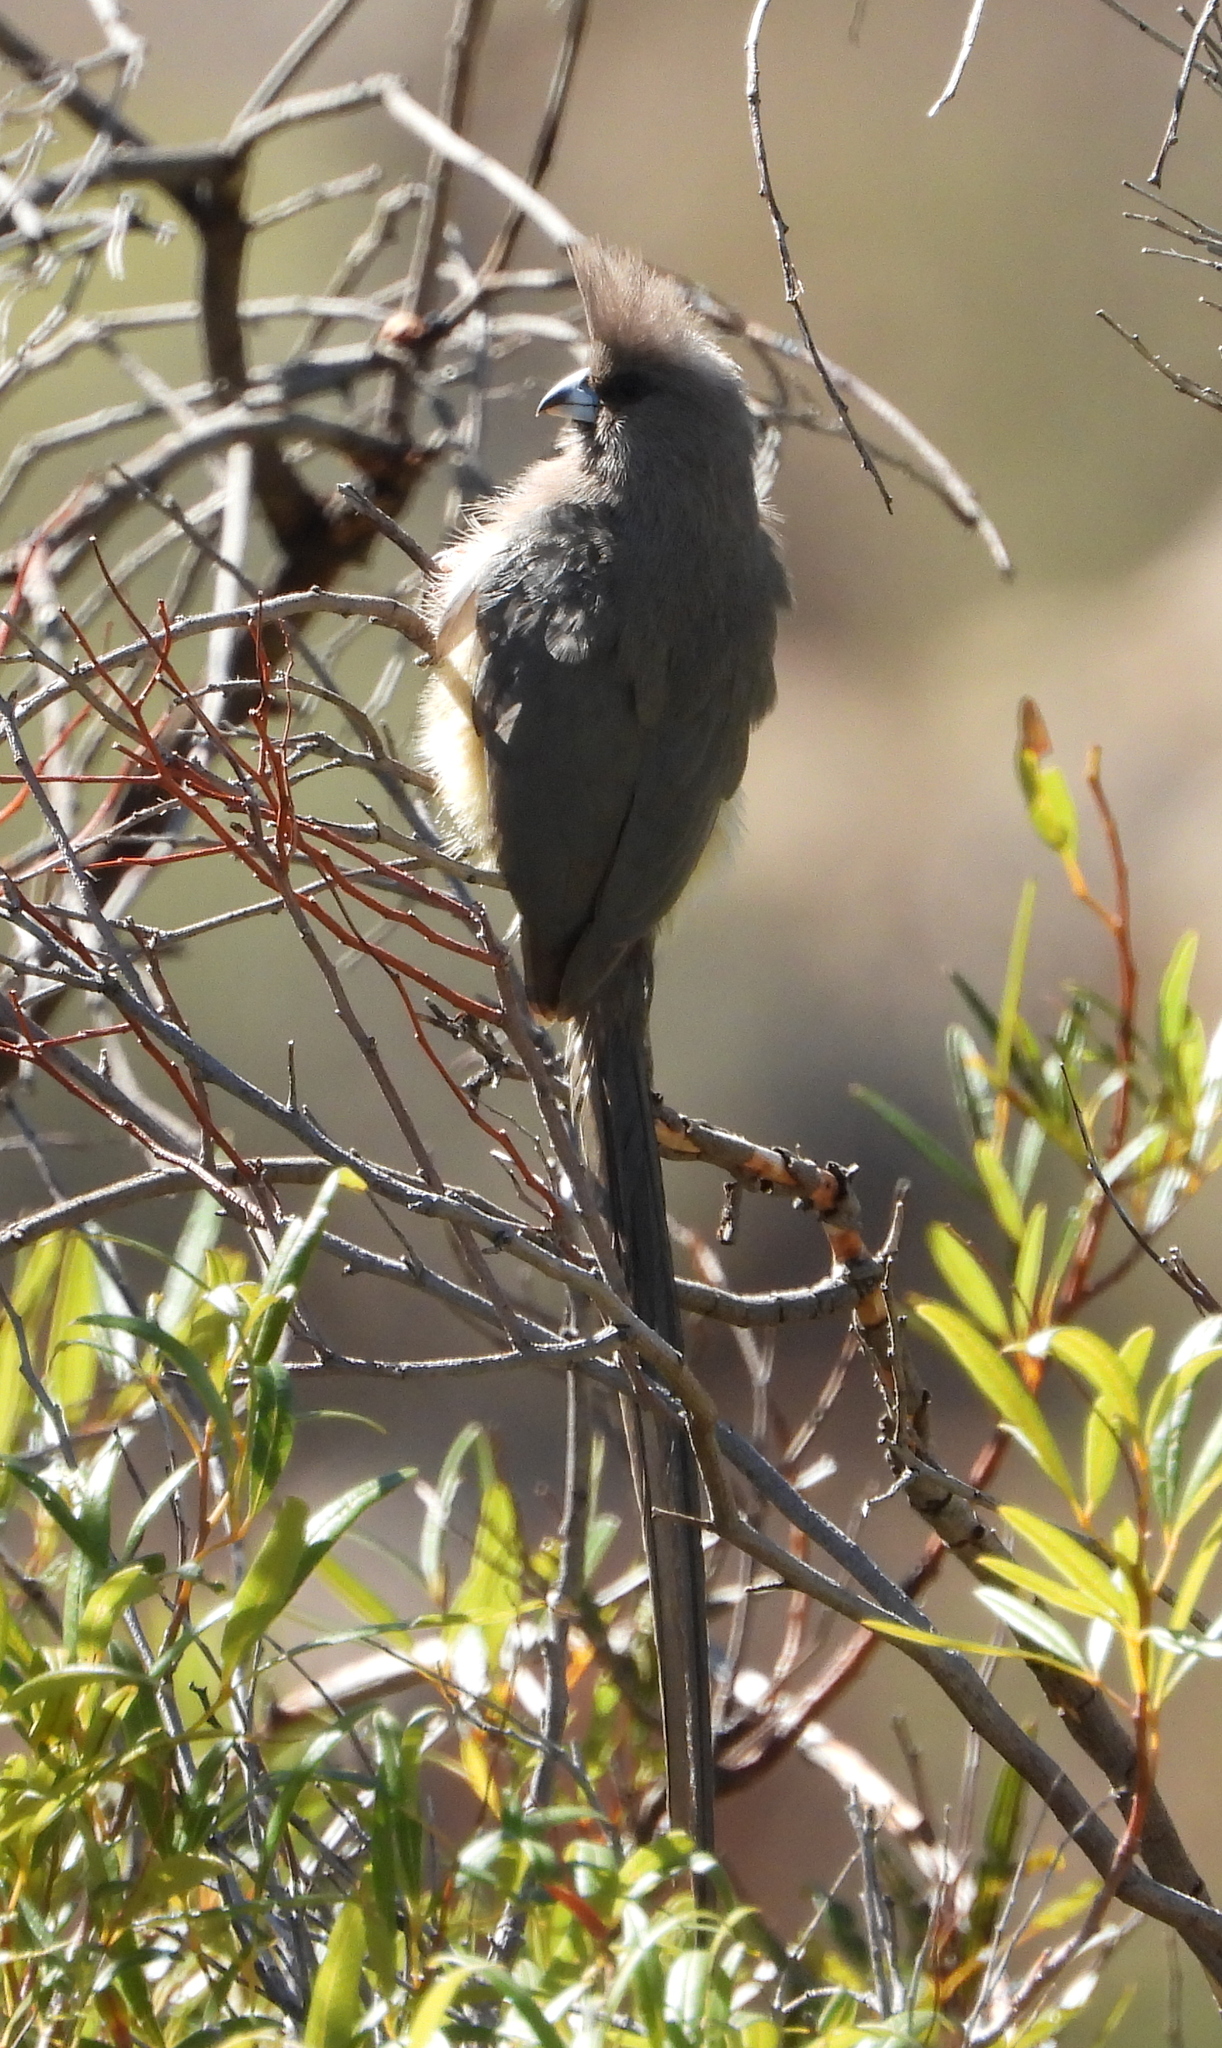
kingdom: Animalia
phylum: Chordata
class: Aves
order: Coliiformes
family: Coliidae
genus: Colius
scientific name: Colius colius
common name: White-backed mousebird
